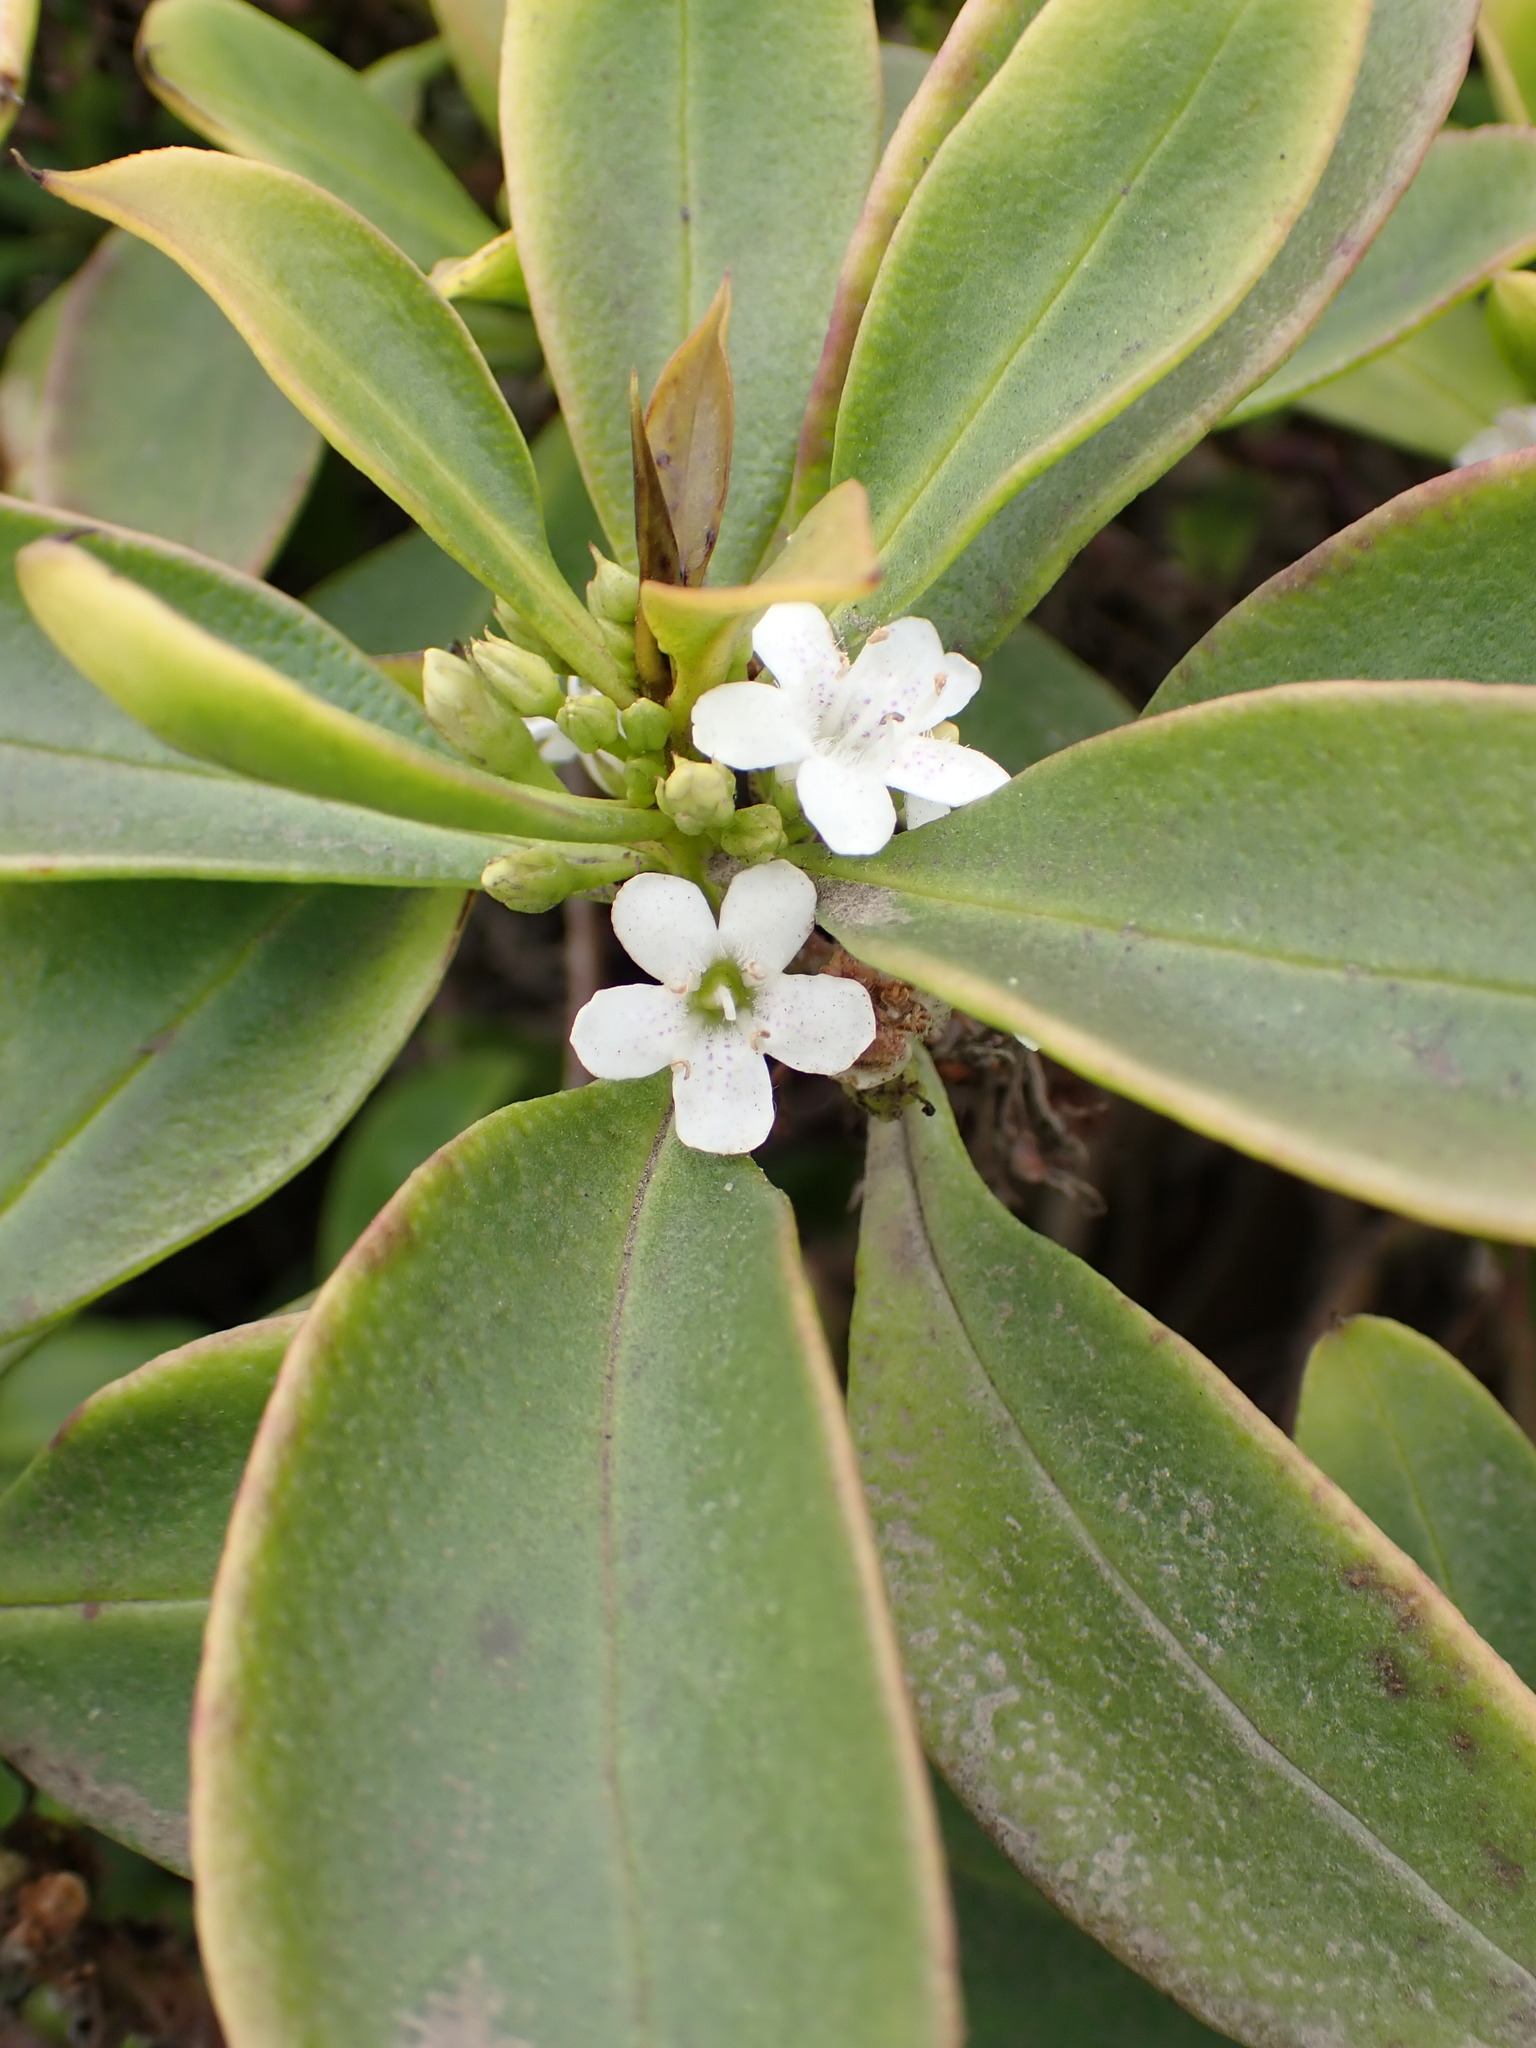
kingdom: Plantae
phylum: Tracheophyta
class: Magnoliopsida
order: Lamiales
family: Scrophulariaceae
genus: Myoporum
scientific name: Myoporum laetum
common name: Ngaio tree
